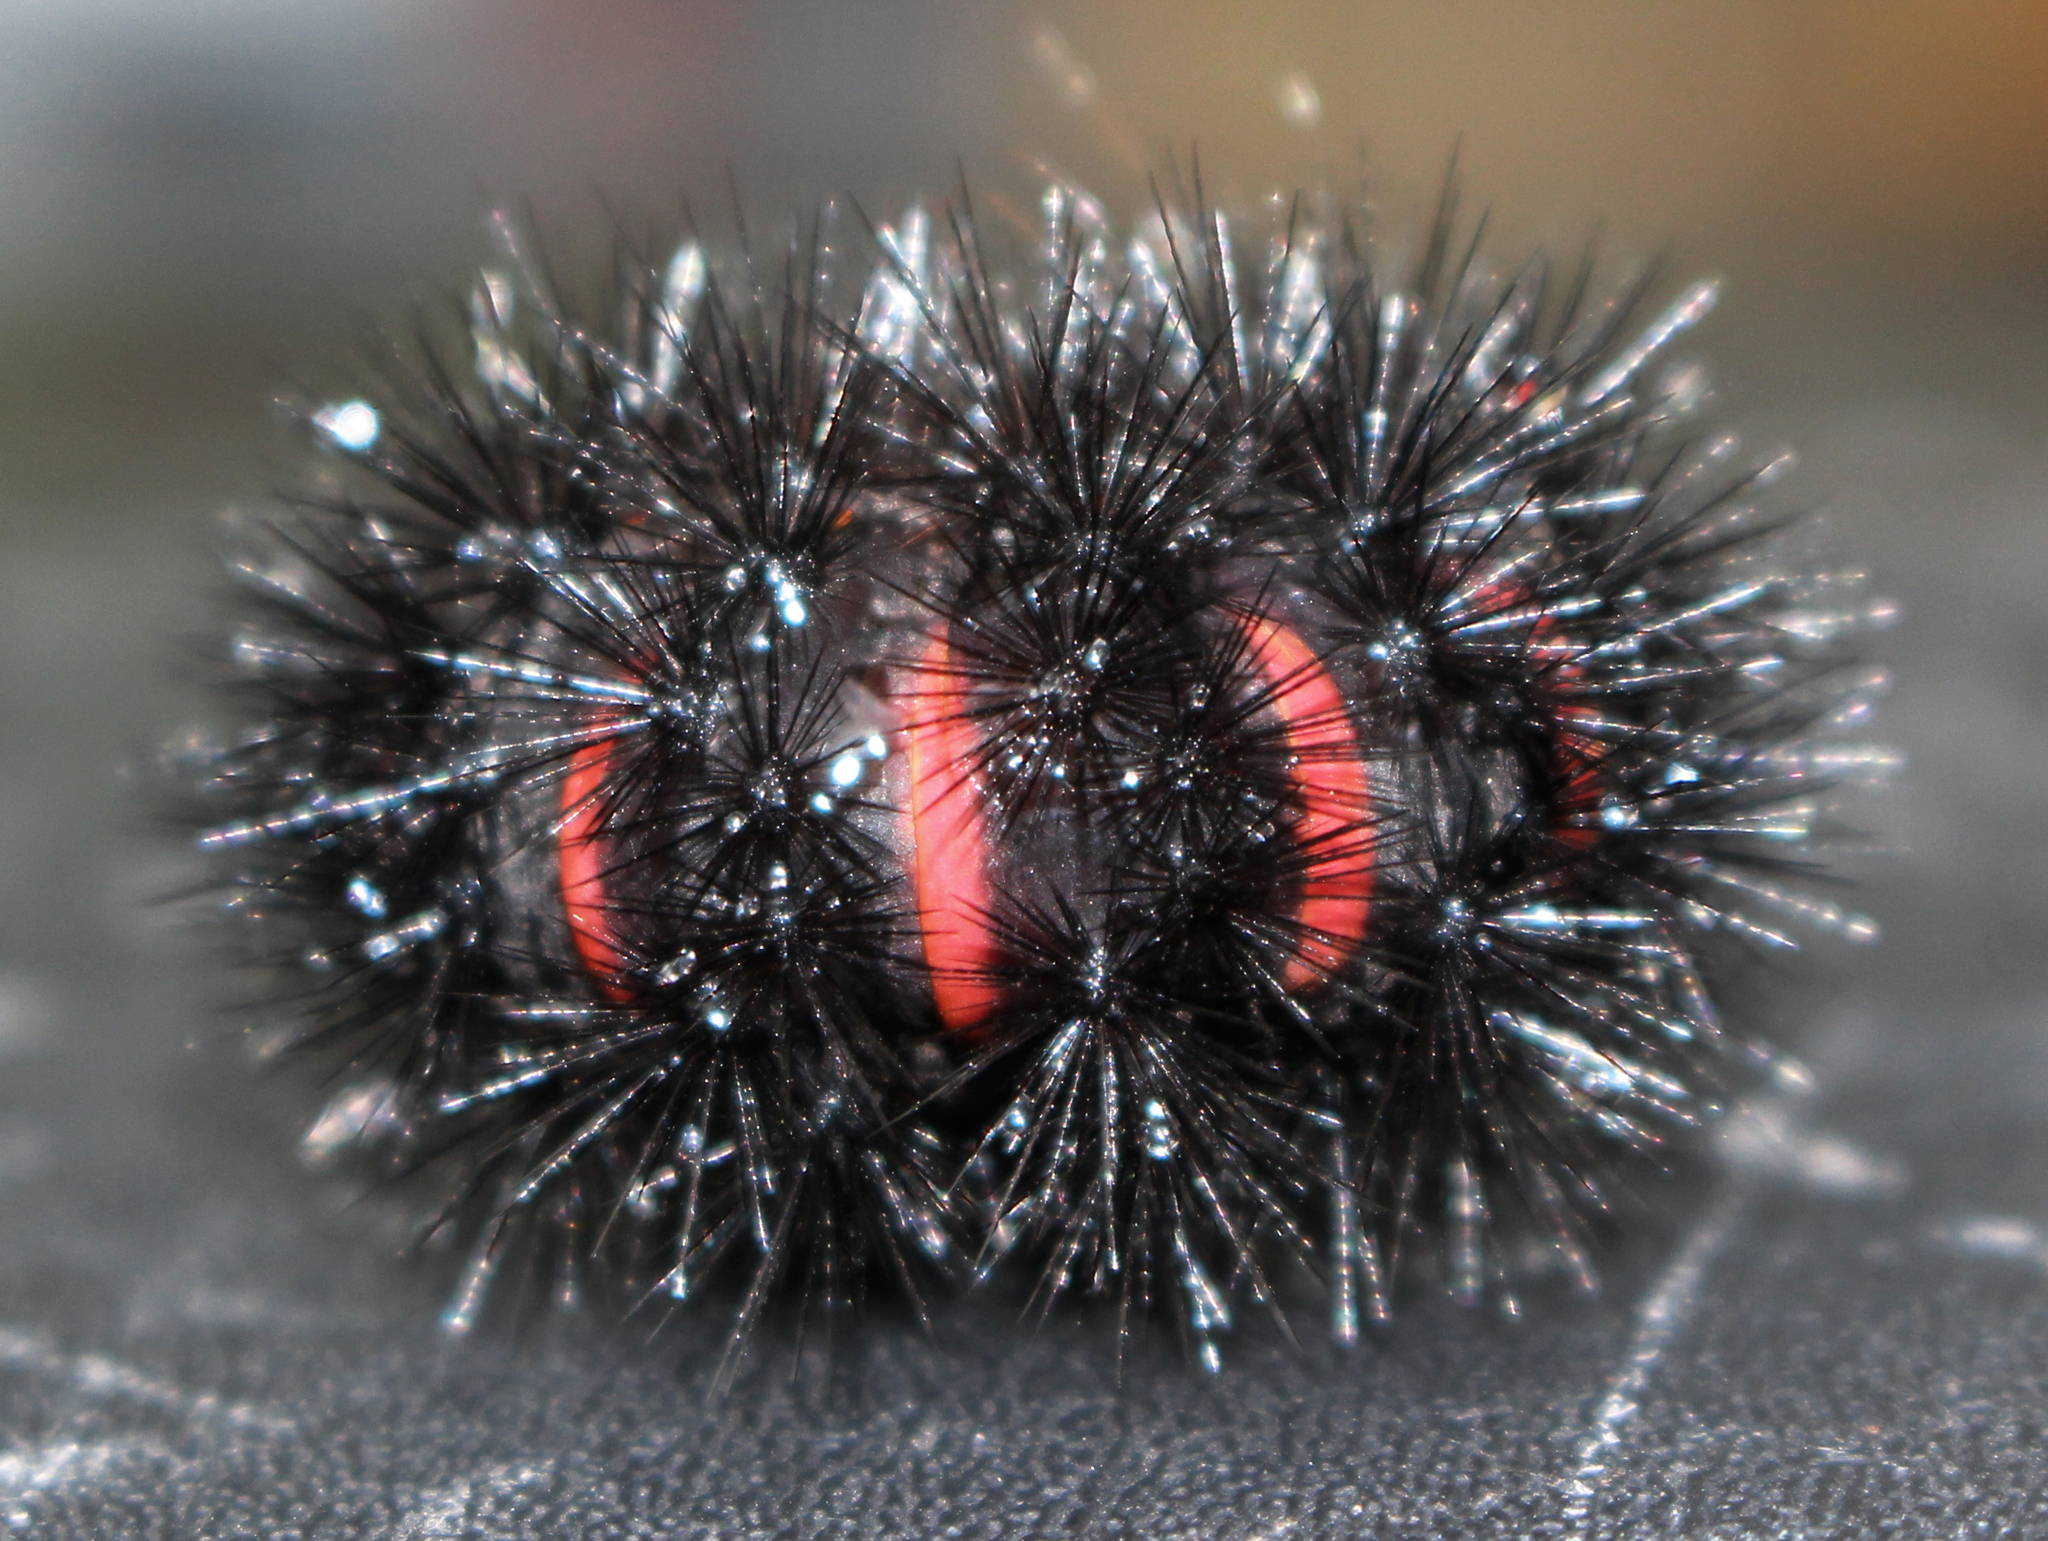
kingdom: Animalia
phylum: Arthropoda
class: Insecta
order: Lepidoptera
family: Erebidae
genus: Hypercompe
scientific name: Hypercompe scribonia
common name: Giant leopard moth
